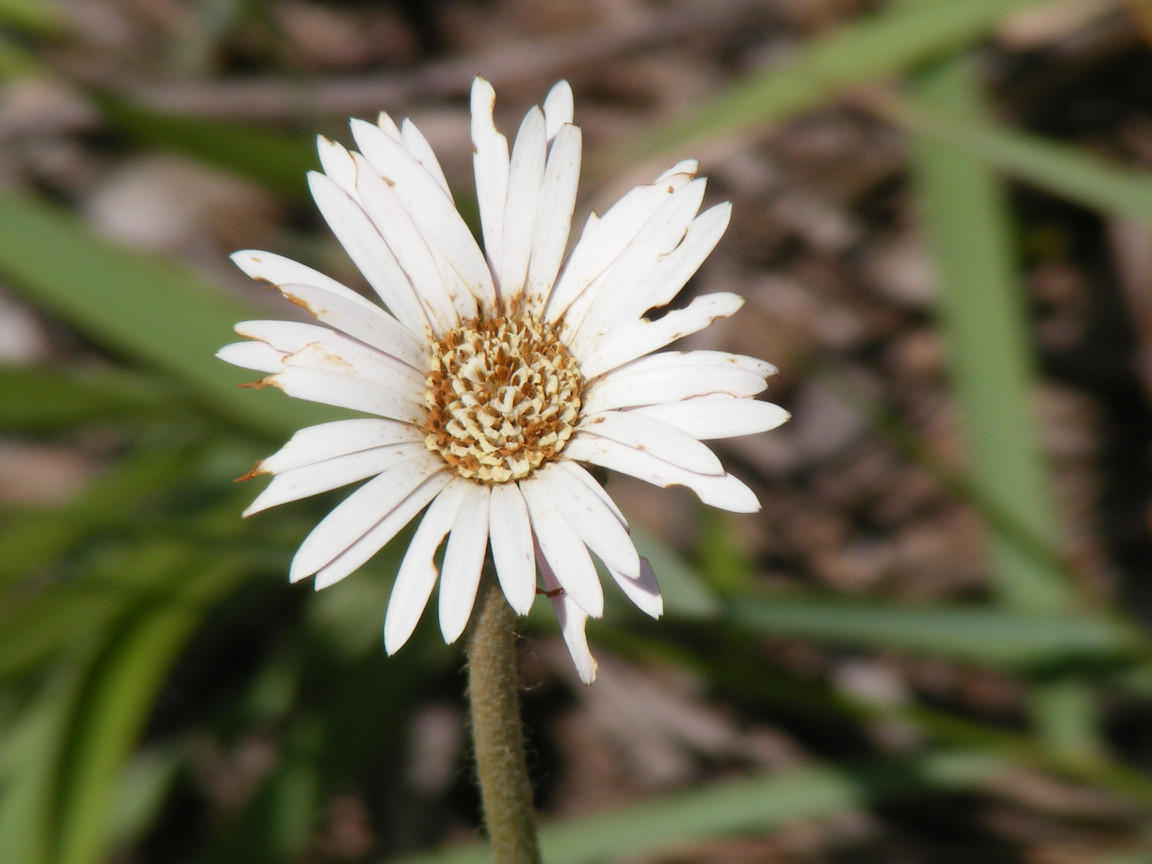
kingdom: Plantae
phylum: Tracheophyta
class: Magnoliopsida
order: Asterales
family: Asteraceae
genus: Gerbera
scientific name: Gerbera ambigua
